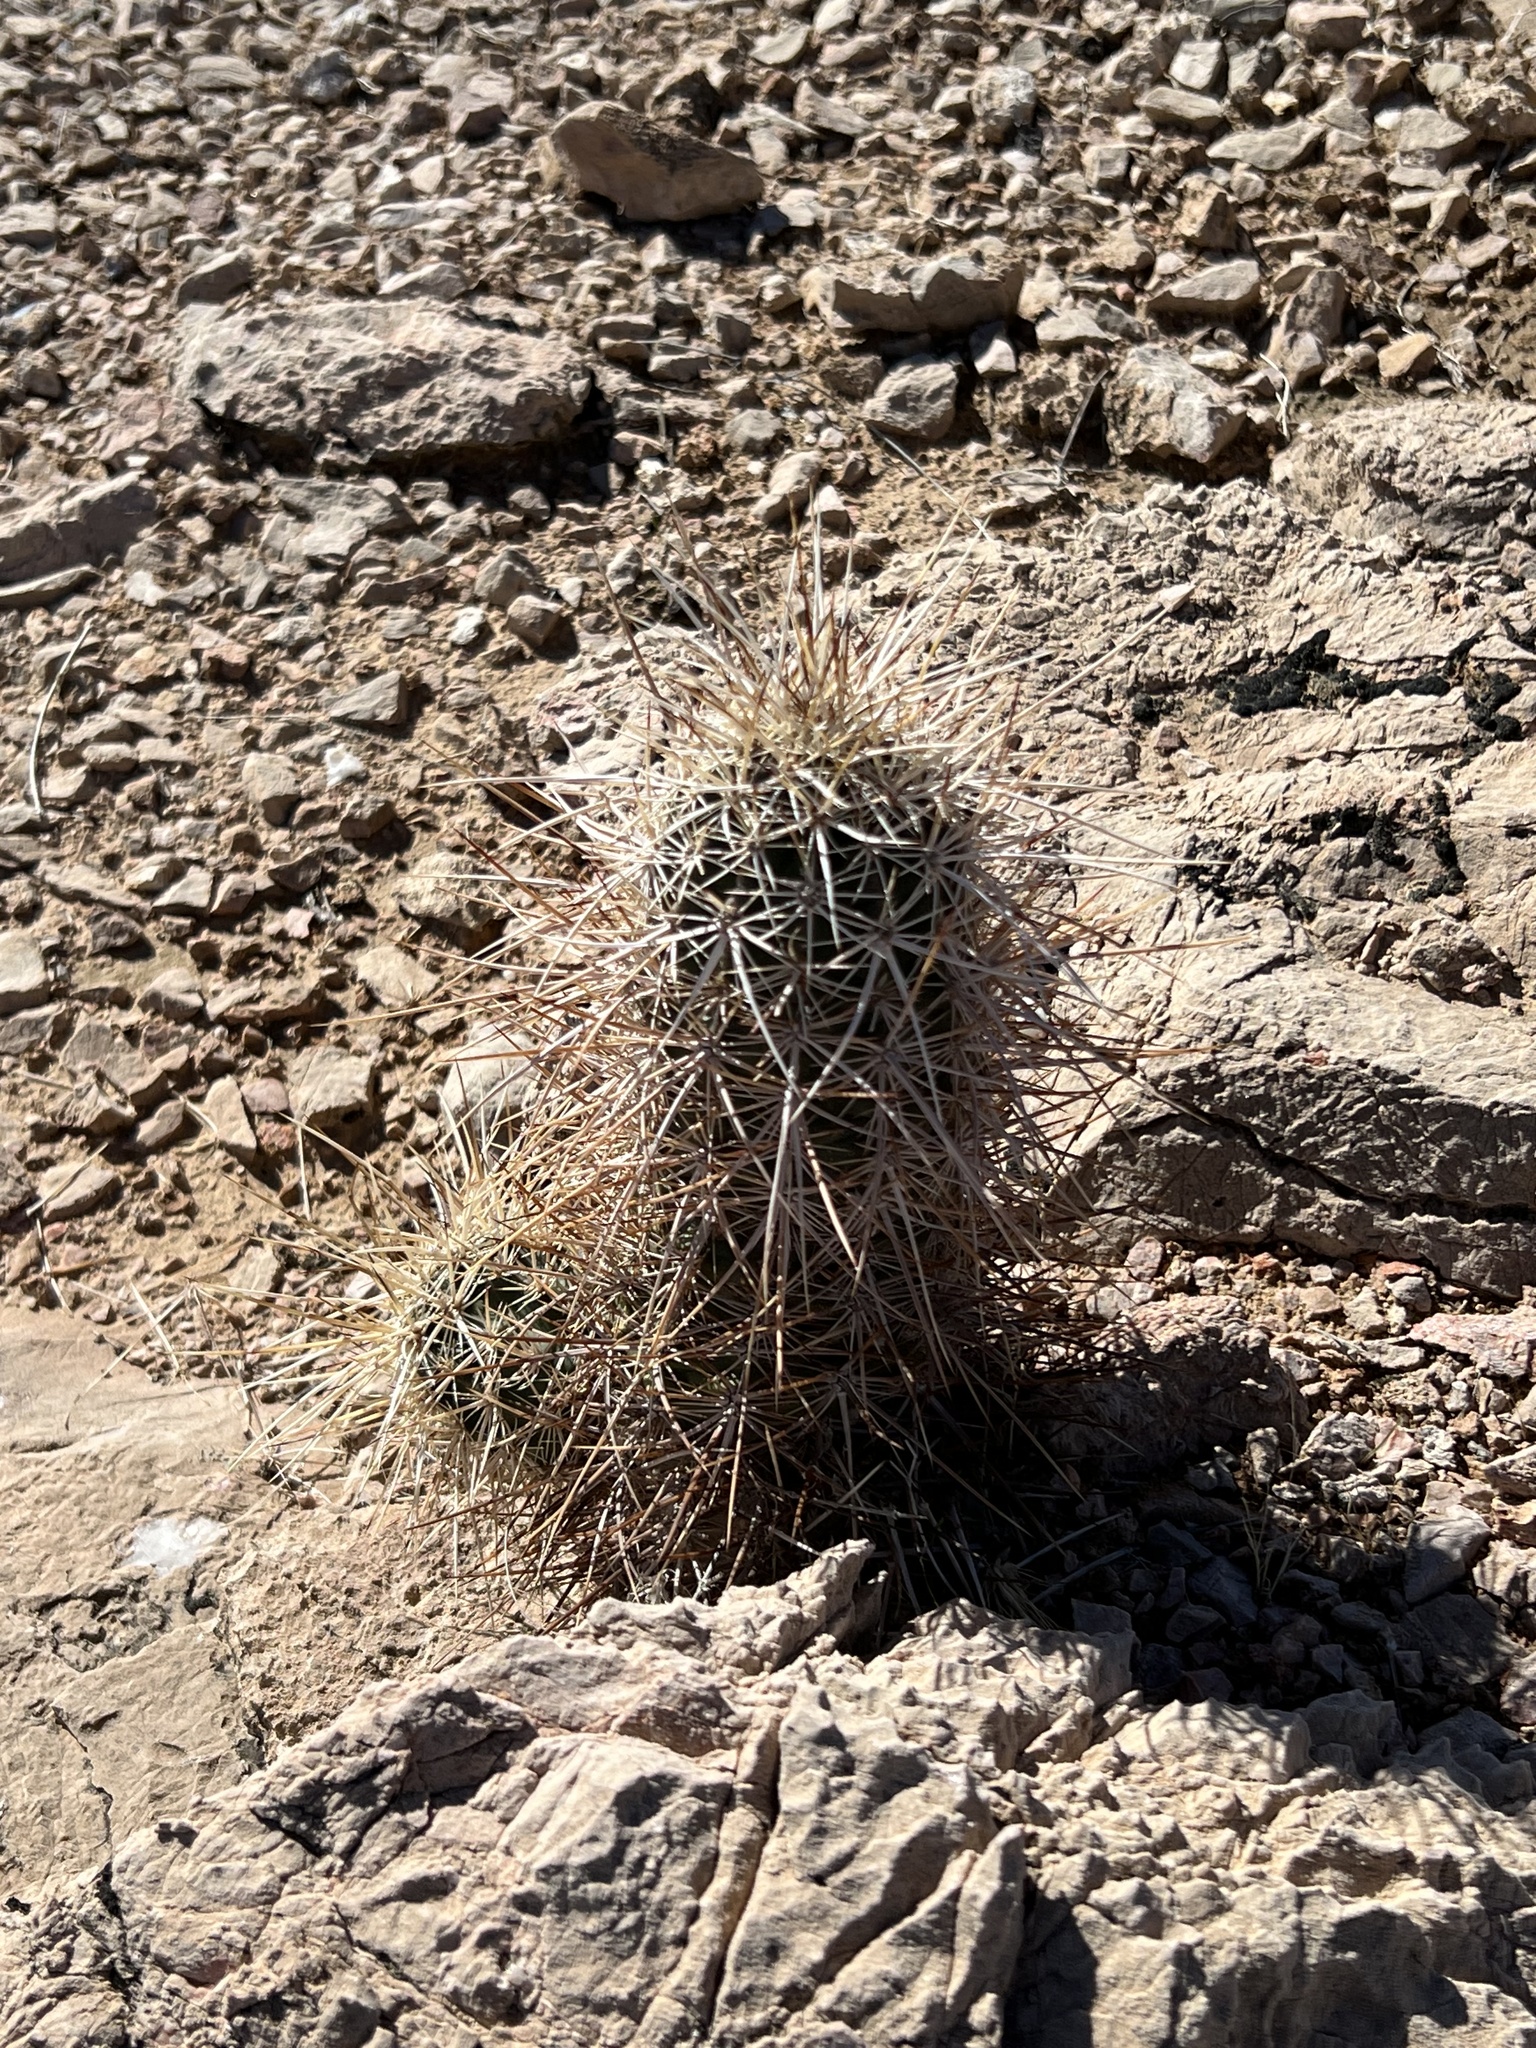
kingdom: Plantae
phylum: Tracheophyta
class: Magnoliopsida
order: Caryophyllales
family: Cactaceae
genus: Echinocereus
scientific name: Echinocereus engelmannii
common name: Engelmann's hedgehog cactus
